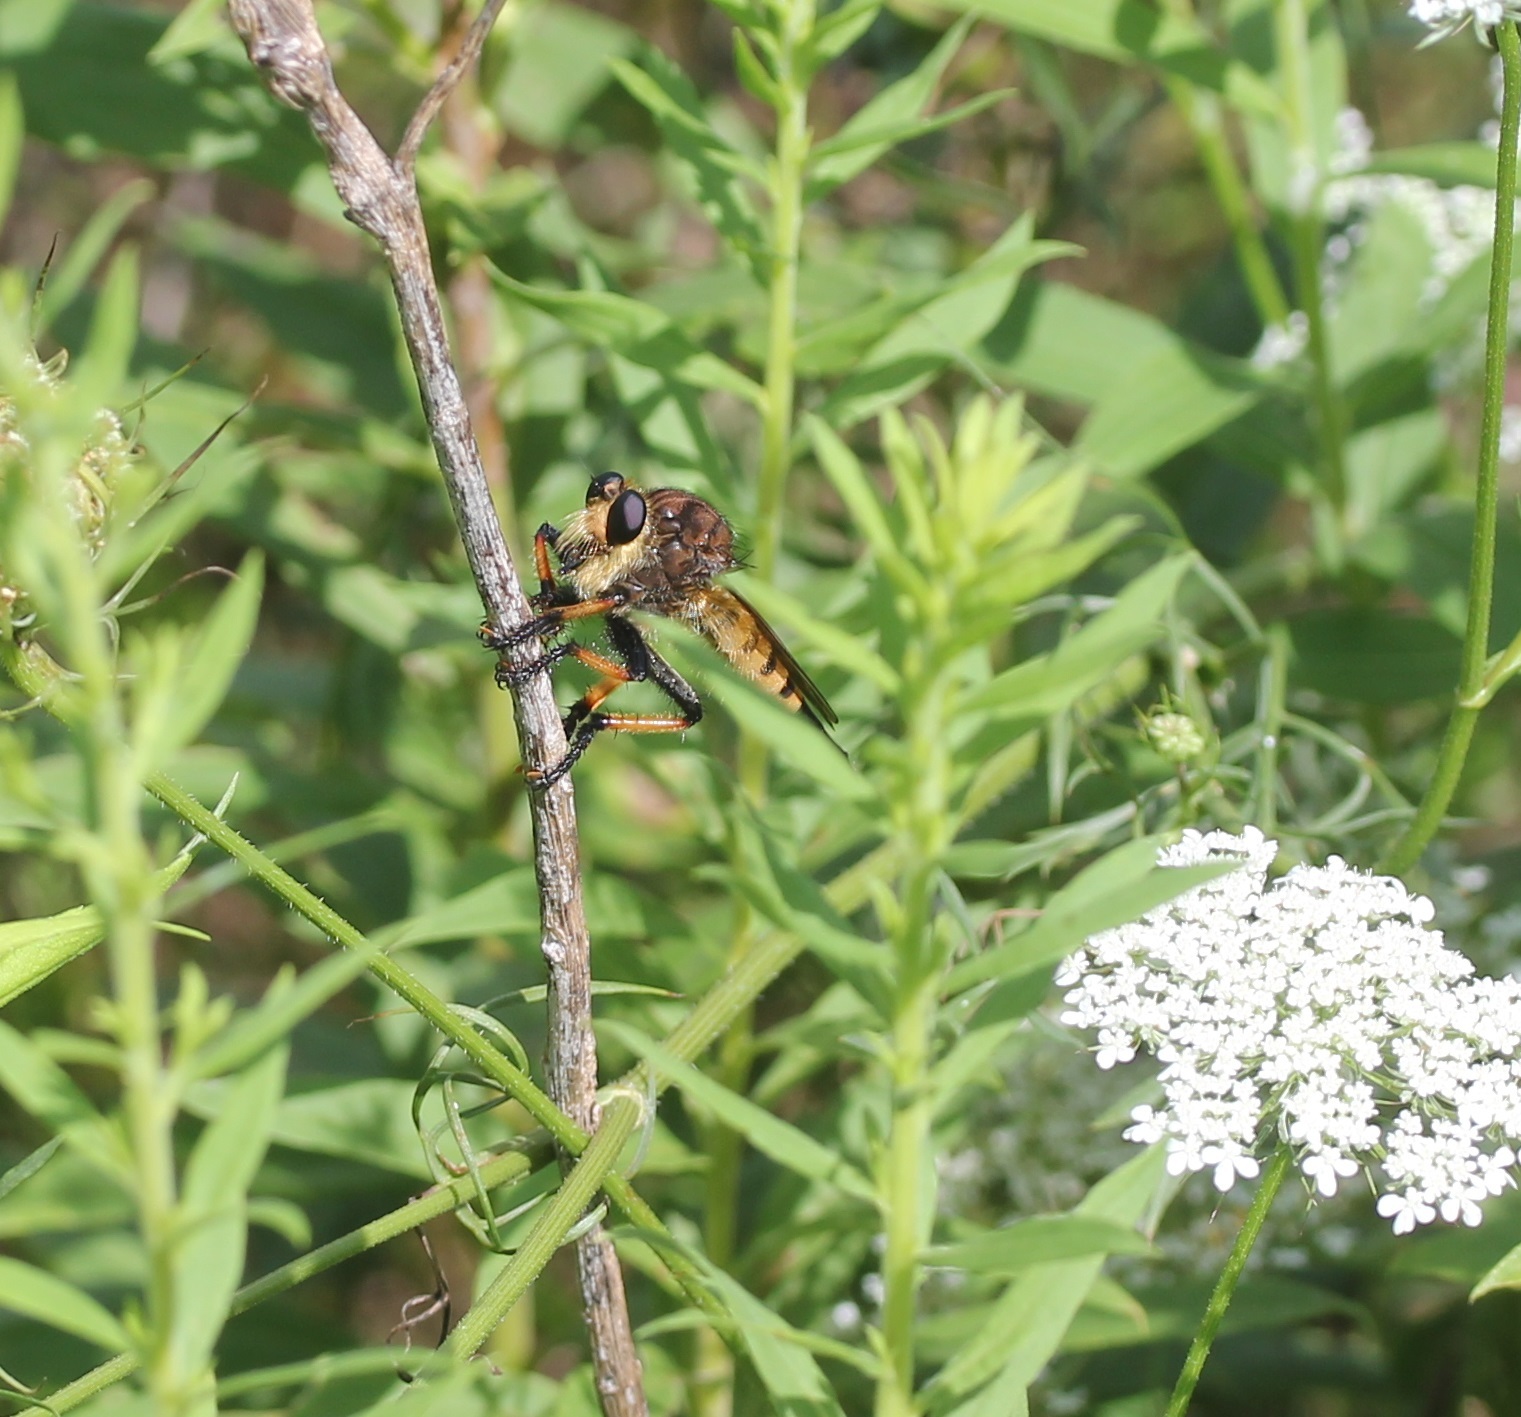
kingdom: Animalia
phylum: Arthropoda
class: Insecta
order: Diptera
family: Asilidae
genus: Promachus
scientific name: Promachus rufipes
